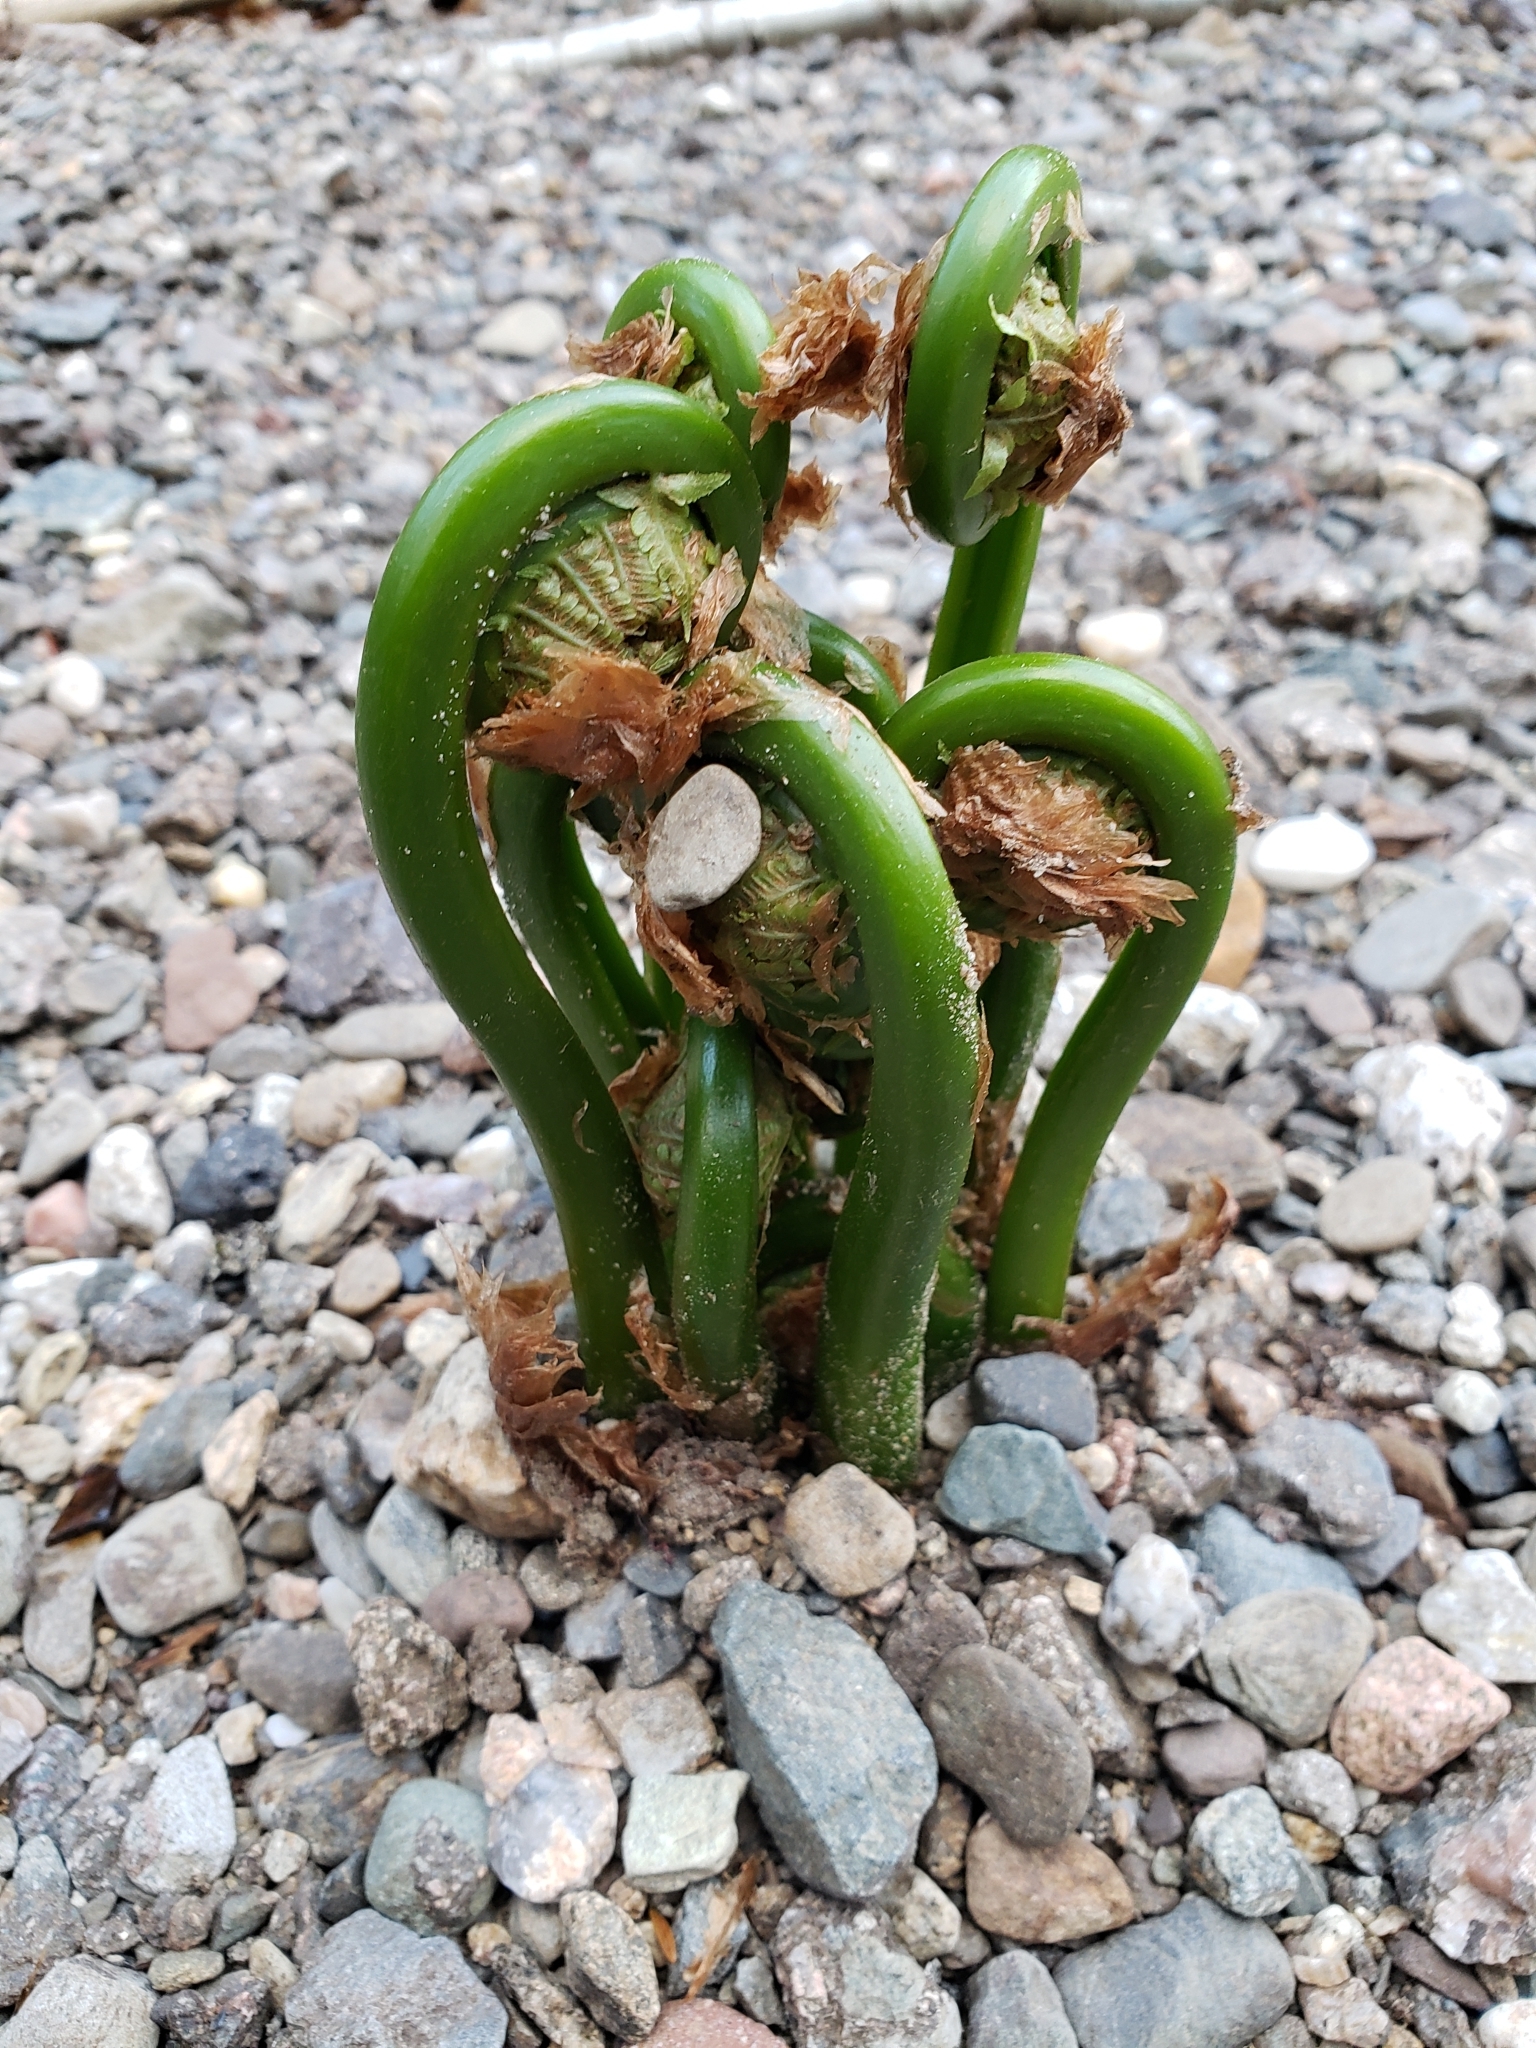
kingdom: Plantae
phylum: Tracheophyta
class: Polypodiopsida
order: Polypodiales
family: Onocleaceae
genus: Matteuccia
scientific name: Matteuccia struthiopteris
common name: Ostrich fern
